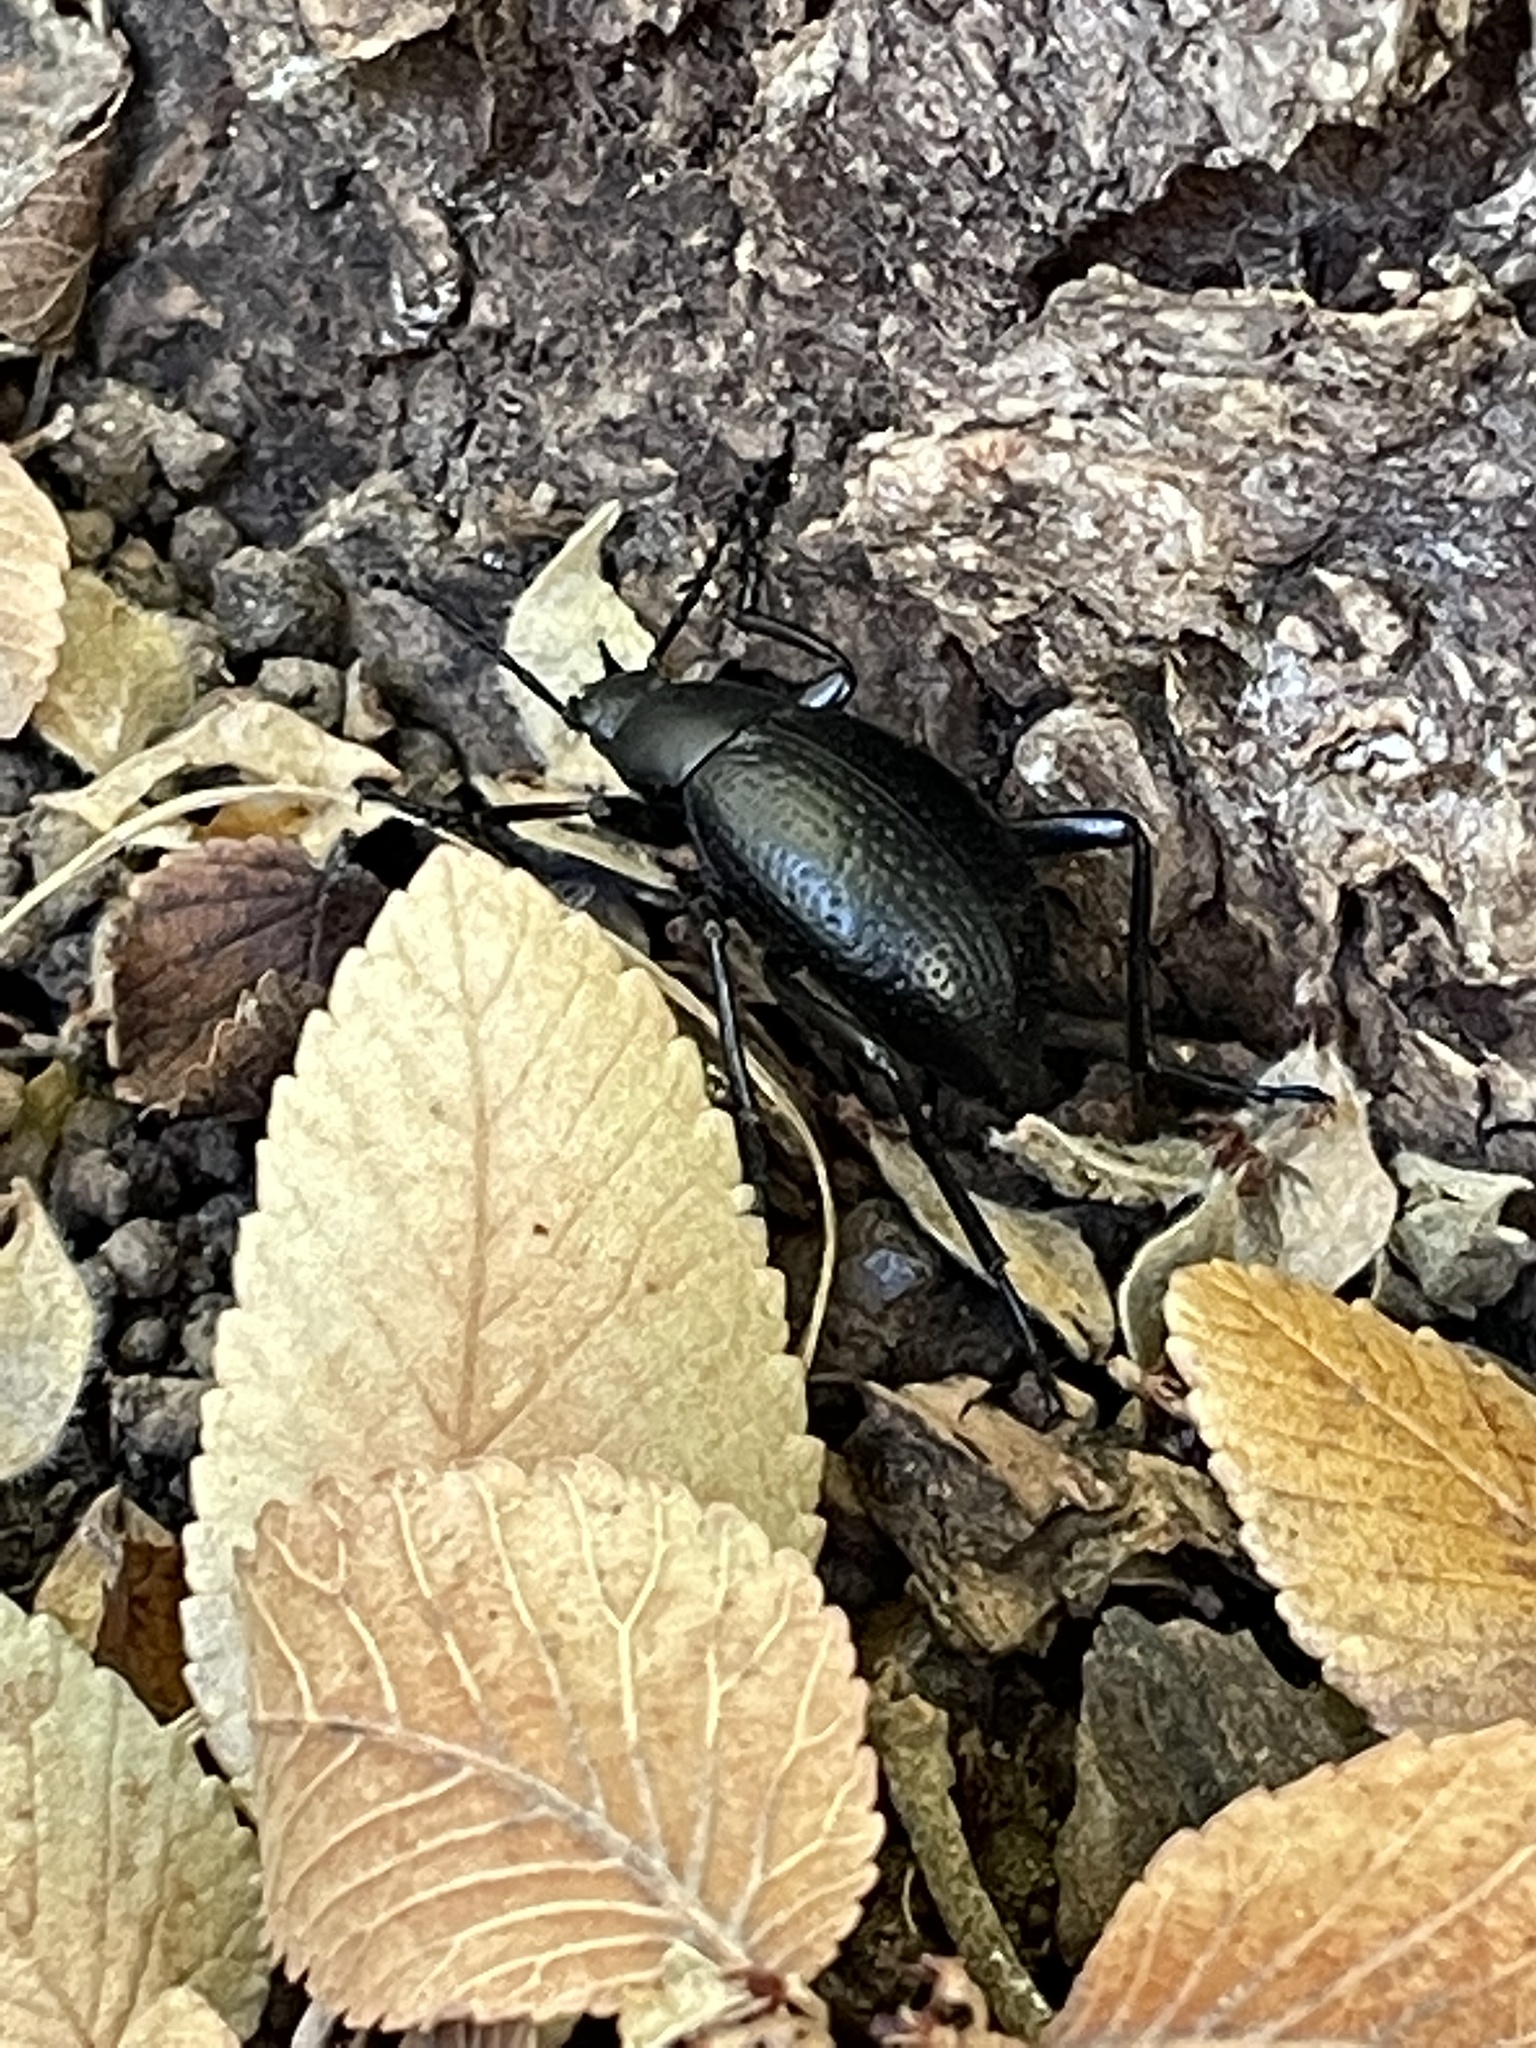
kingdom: Animalia
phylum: Arthropoda
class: Insecta
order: Coleoptera
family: Tenebrionidae
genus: Eleodes
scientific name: Eleodes goryi
